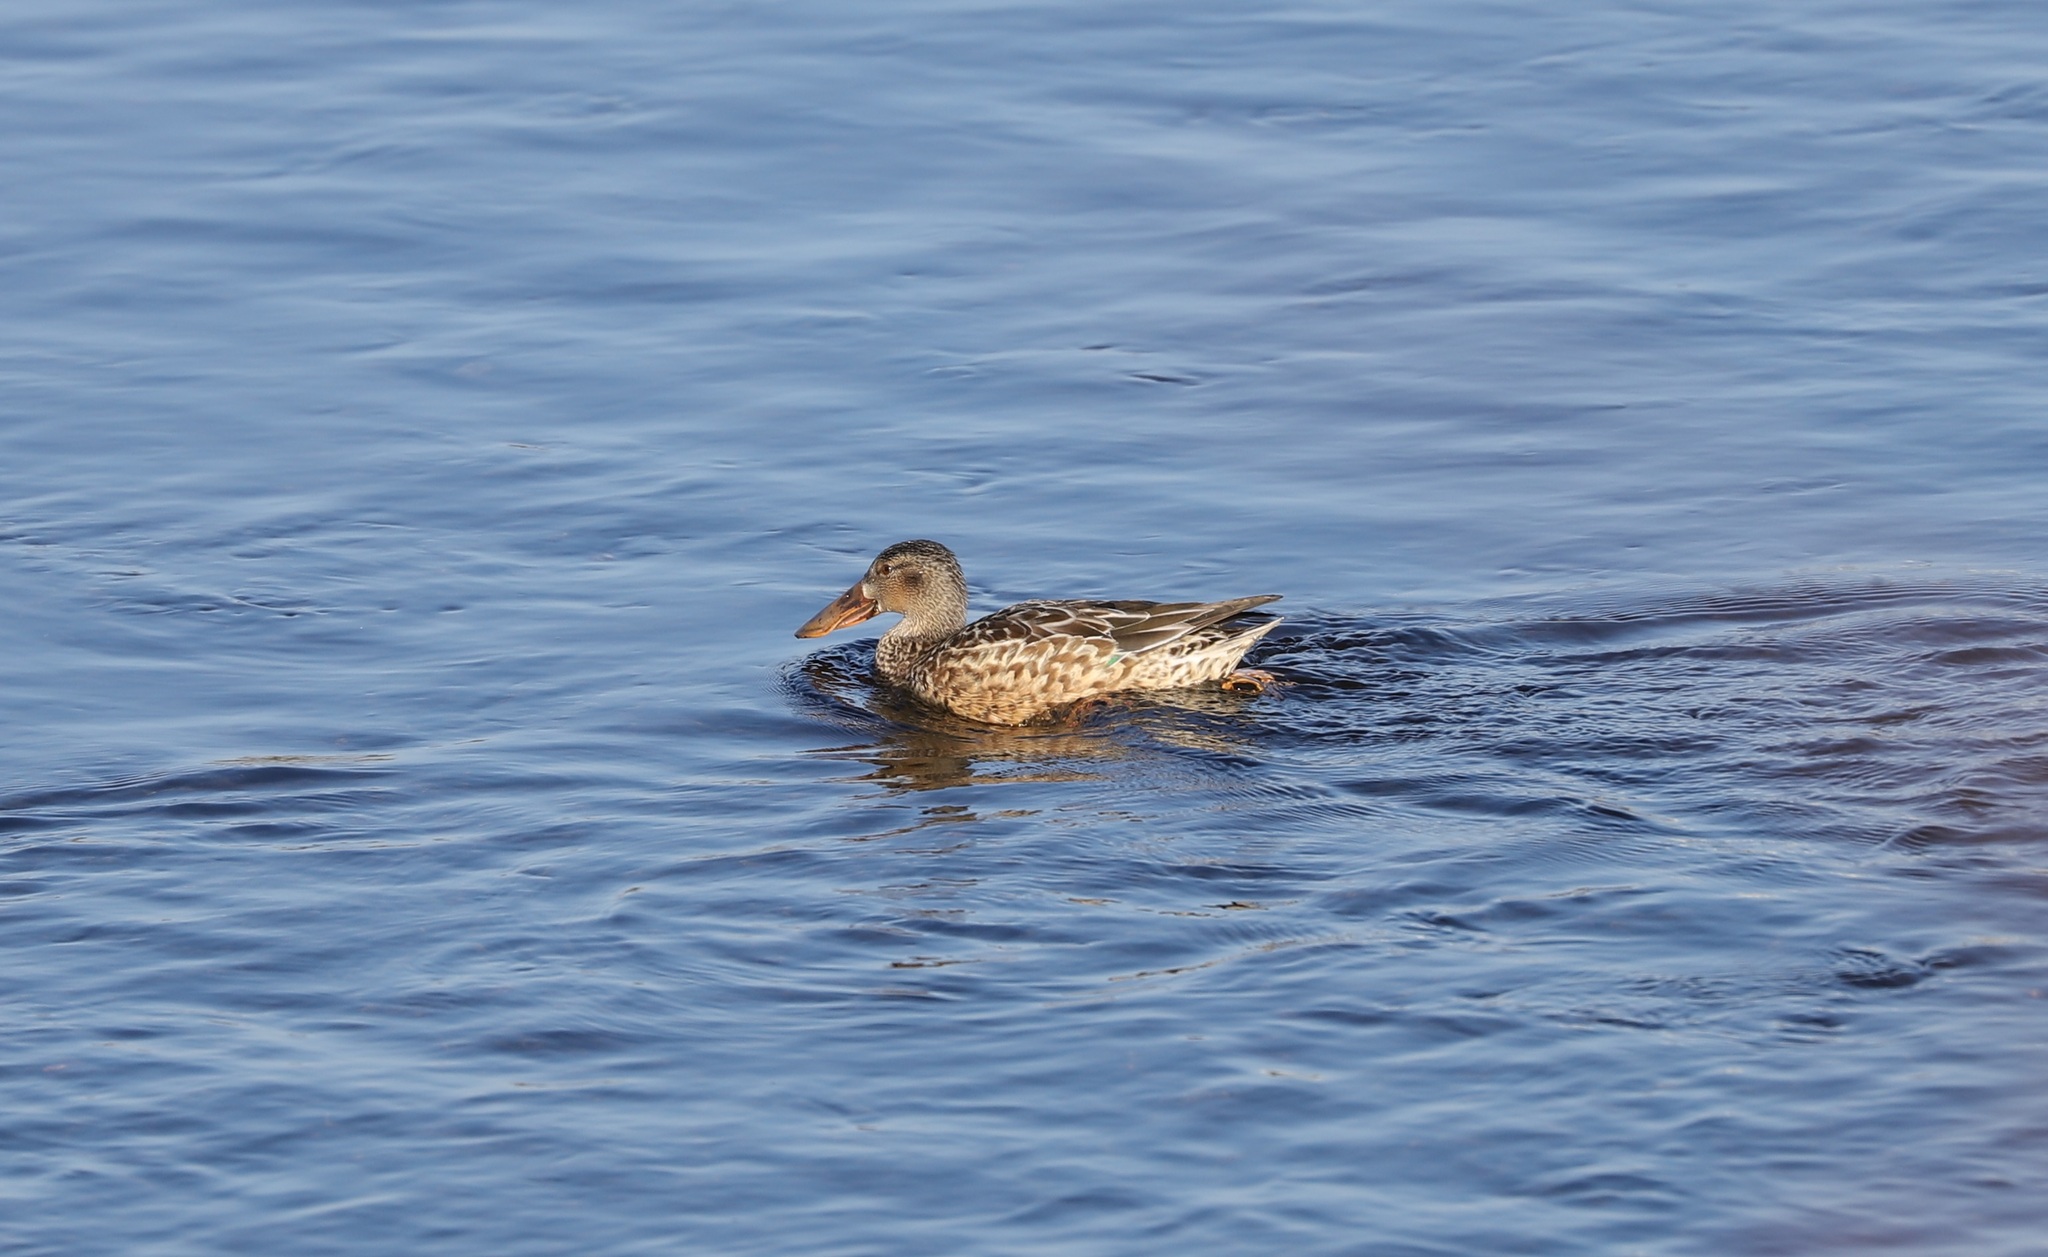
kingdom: Animalia
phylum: Chordata
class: Aves
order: Anseriformes
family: Anatidae
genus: Spatula
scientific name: Spatula clypeata
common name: Northern shoveler
